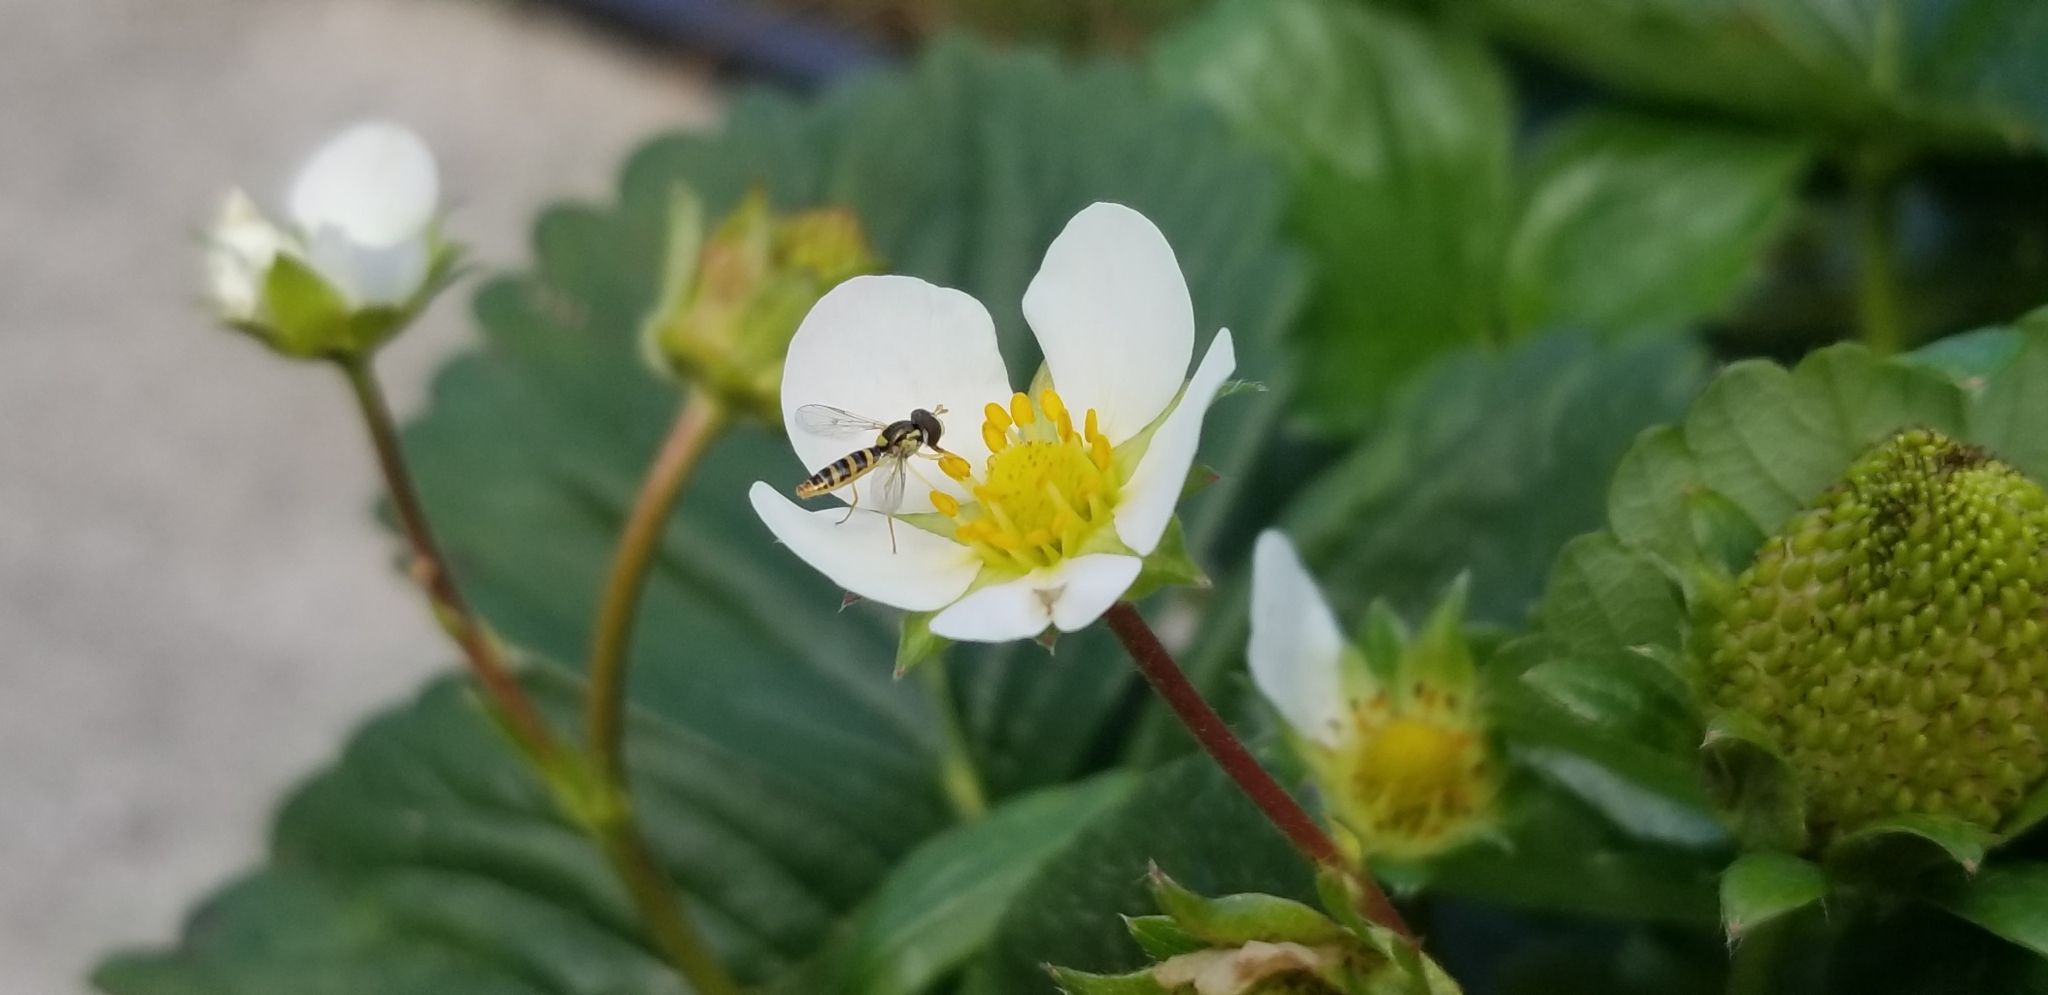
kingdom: Animalia
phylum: Arthropoda
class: Insecta
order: Diptera
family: Syrphidae
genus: Sphaerophoria
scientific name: Sphaerophoria contigua
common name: Tufted globetail
